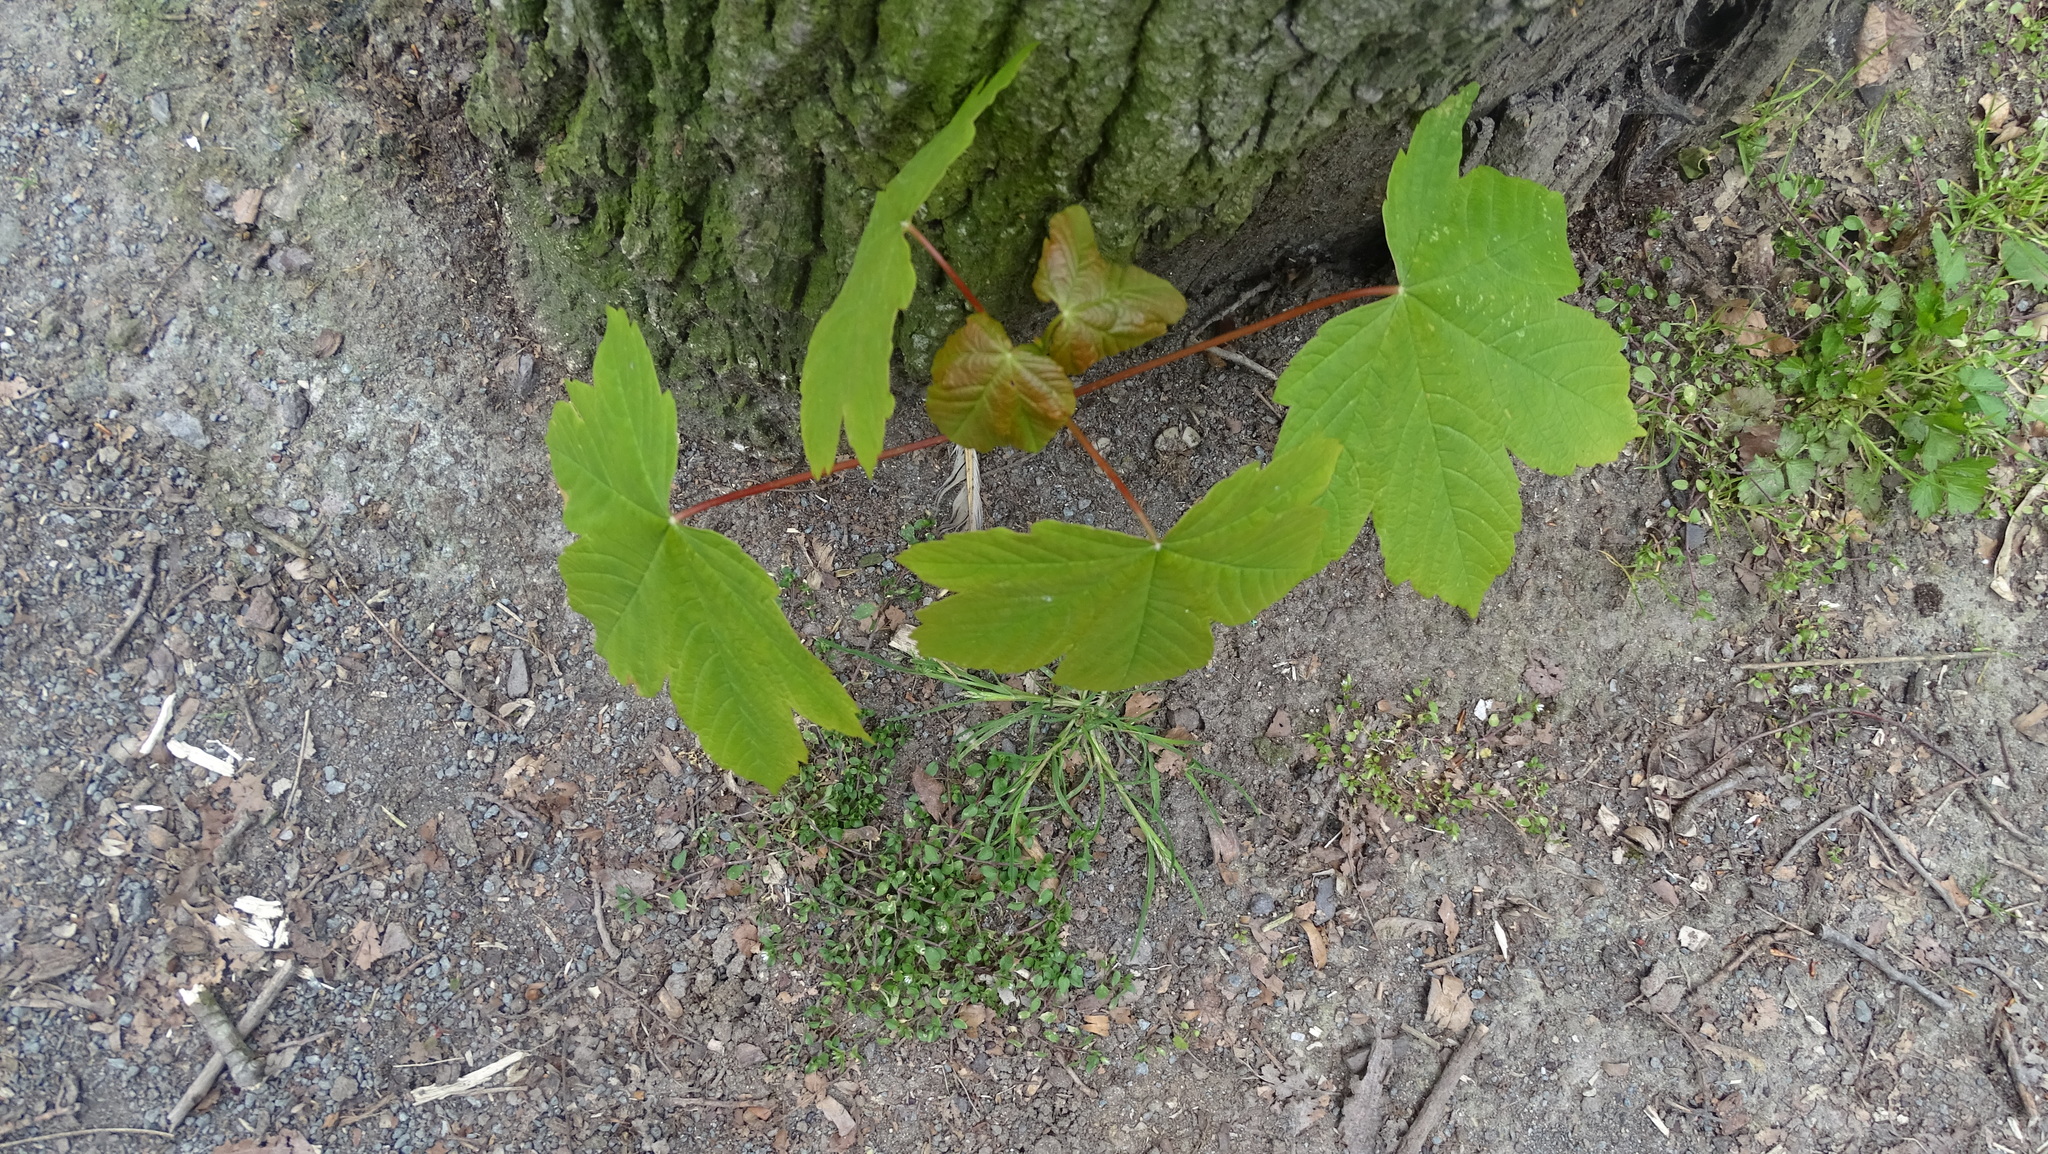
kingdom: Plantae
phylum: Tracheophyta
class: Magnoliopsida
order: Sapindales
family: Sapindaceae
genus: Acer
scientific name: Acer pseudoplatanus
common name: Sycamore
